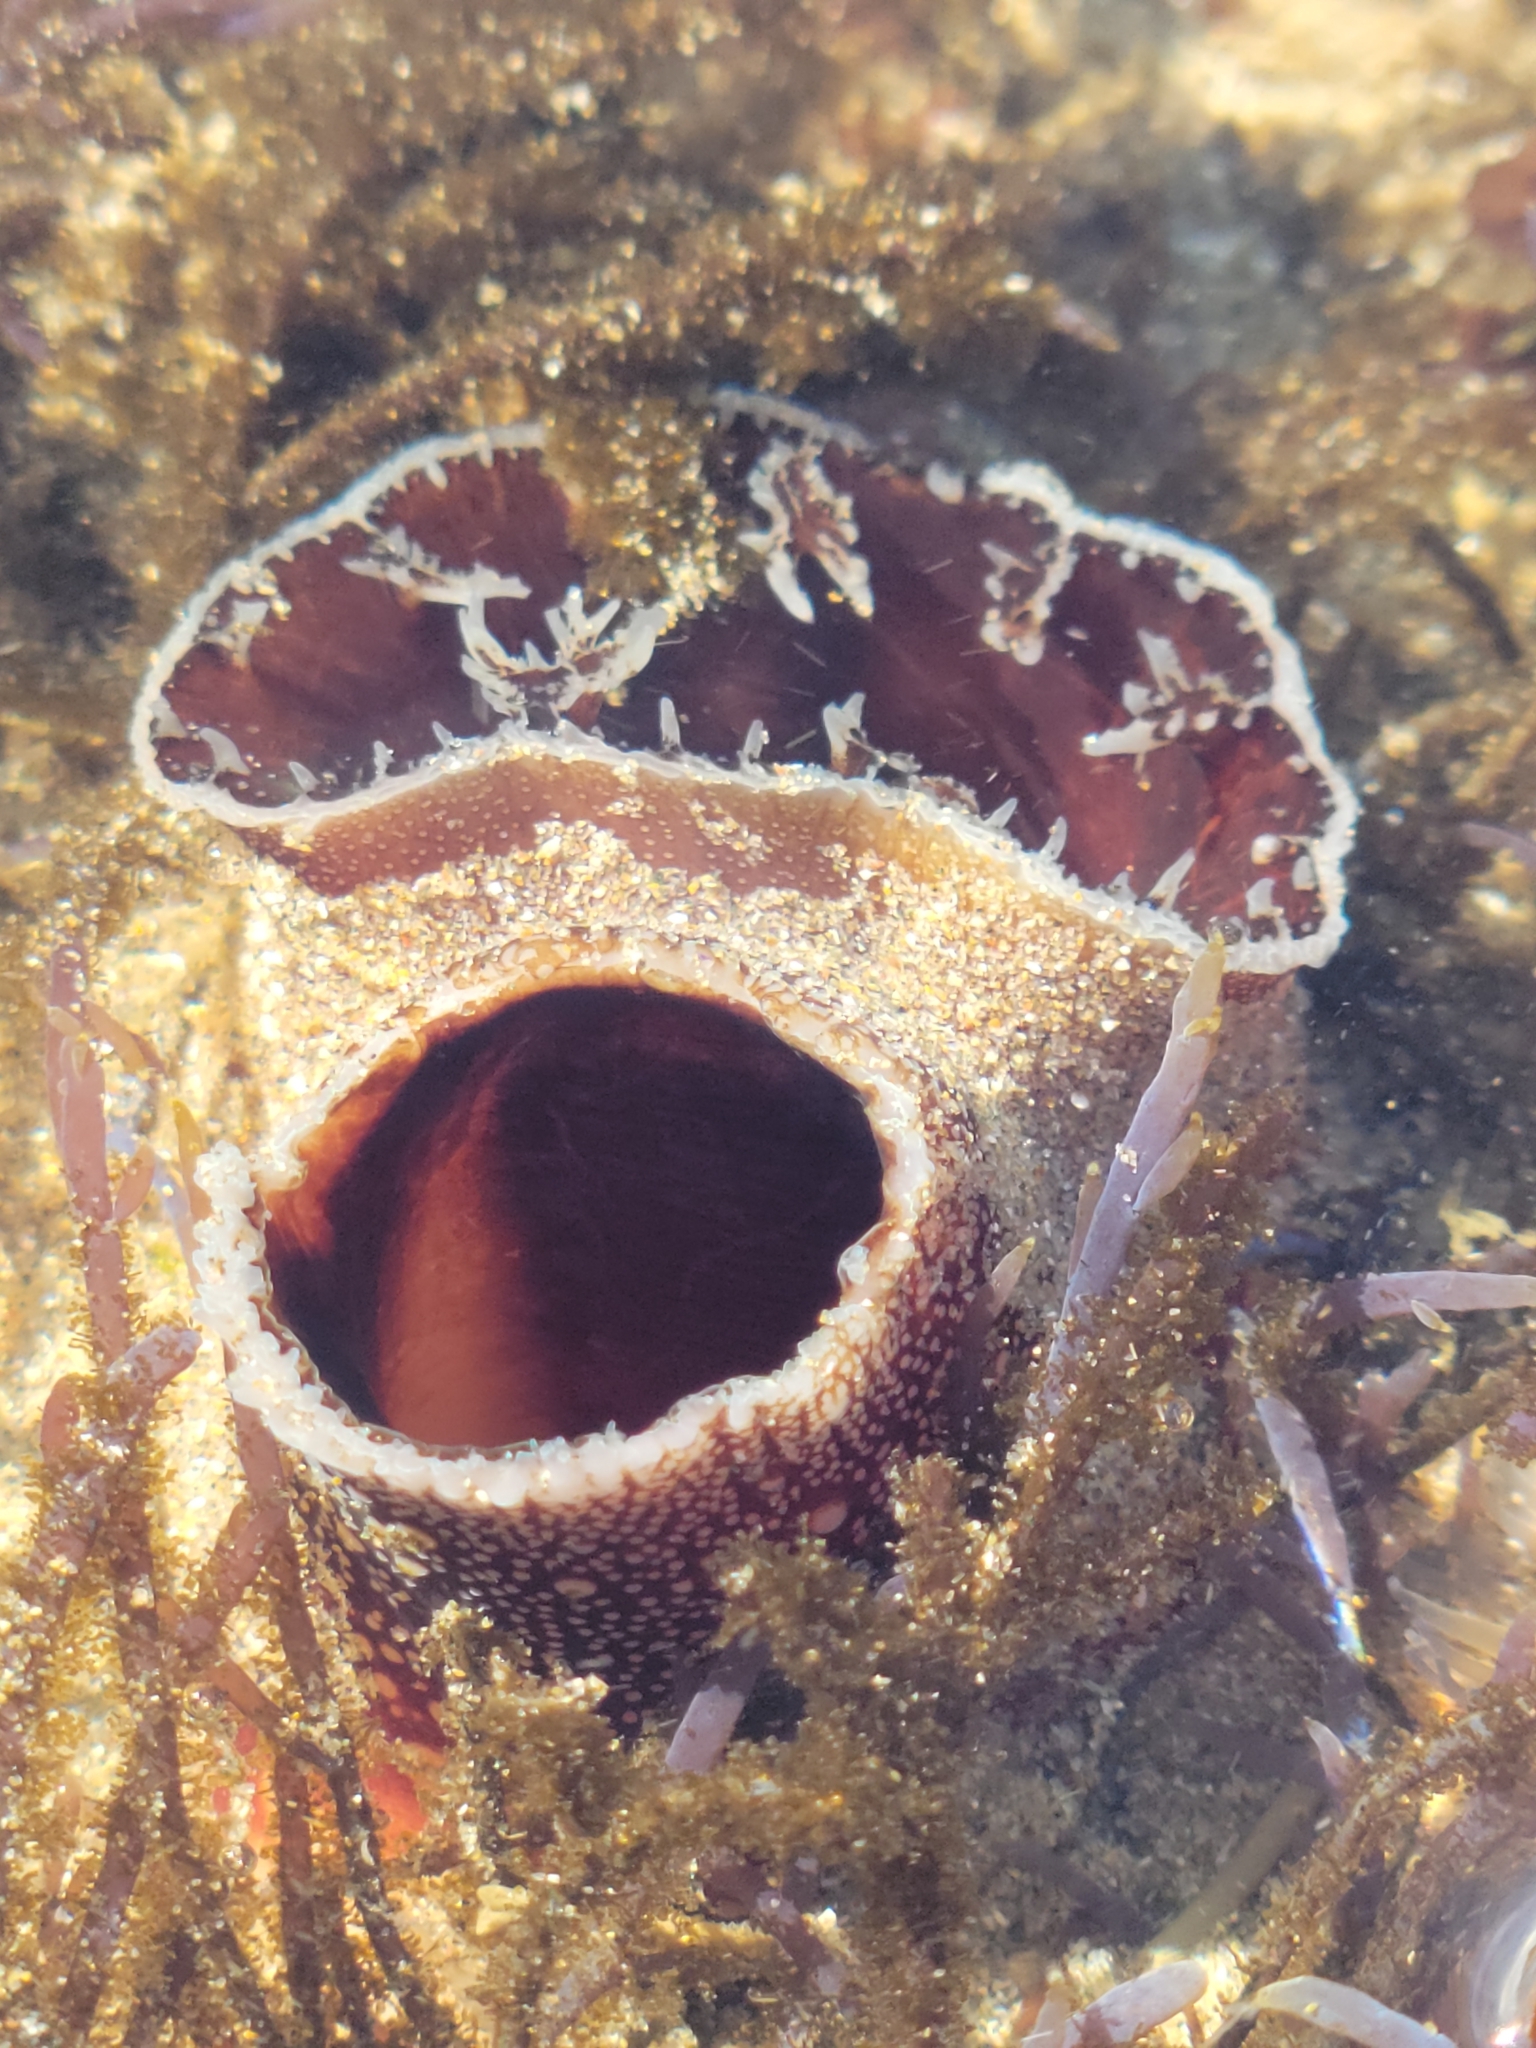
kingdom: Animalia
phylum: Mollusca
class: Bivalvia
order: Myida
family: Pholadidae
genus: Chaceia
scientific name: Chaceia ovoidea
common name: Wartneck piddock
